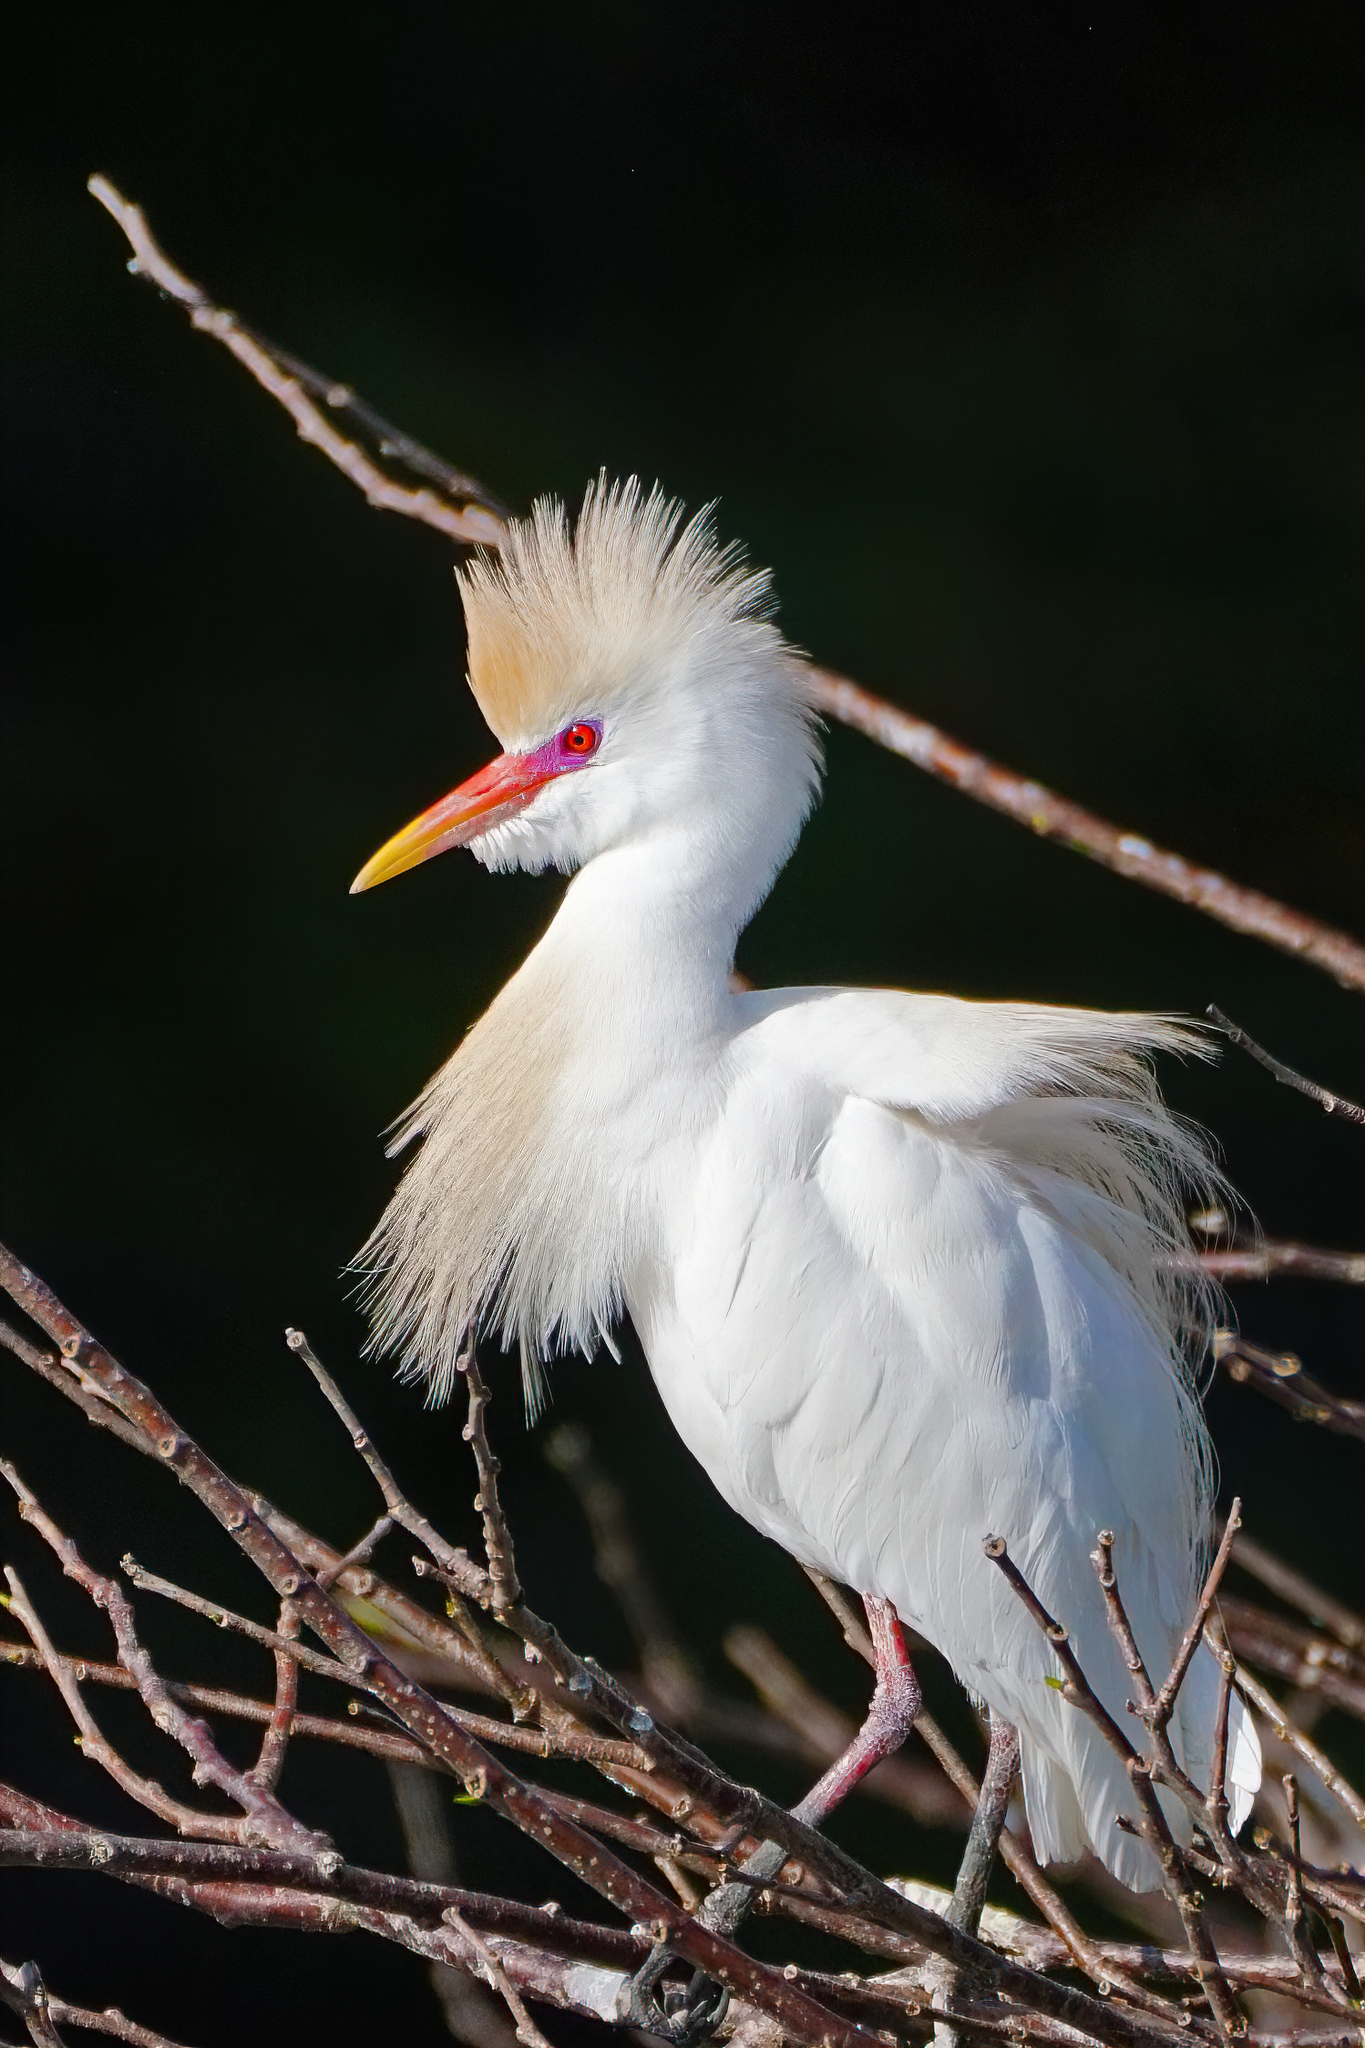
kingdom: Animalia
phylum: Chordata
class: Aves
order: Pelecaniformes
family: Ardeidae
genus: Bubulcus
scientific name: Bubulcus ibis
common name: Cattle egret
